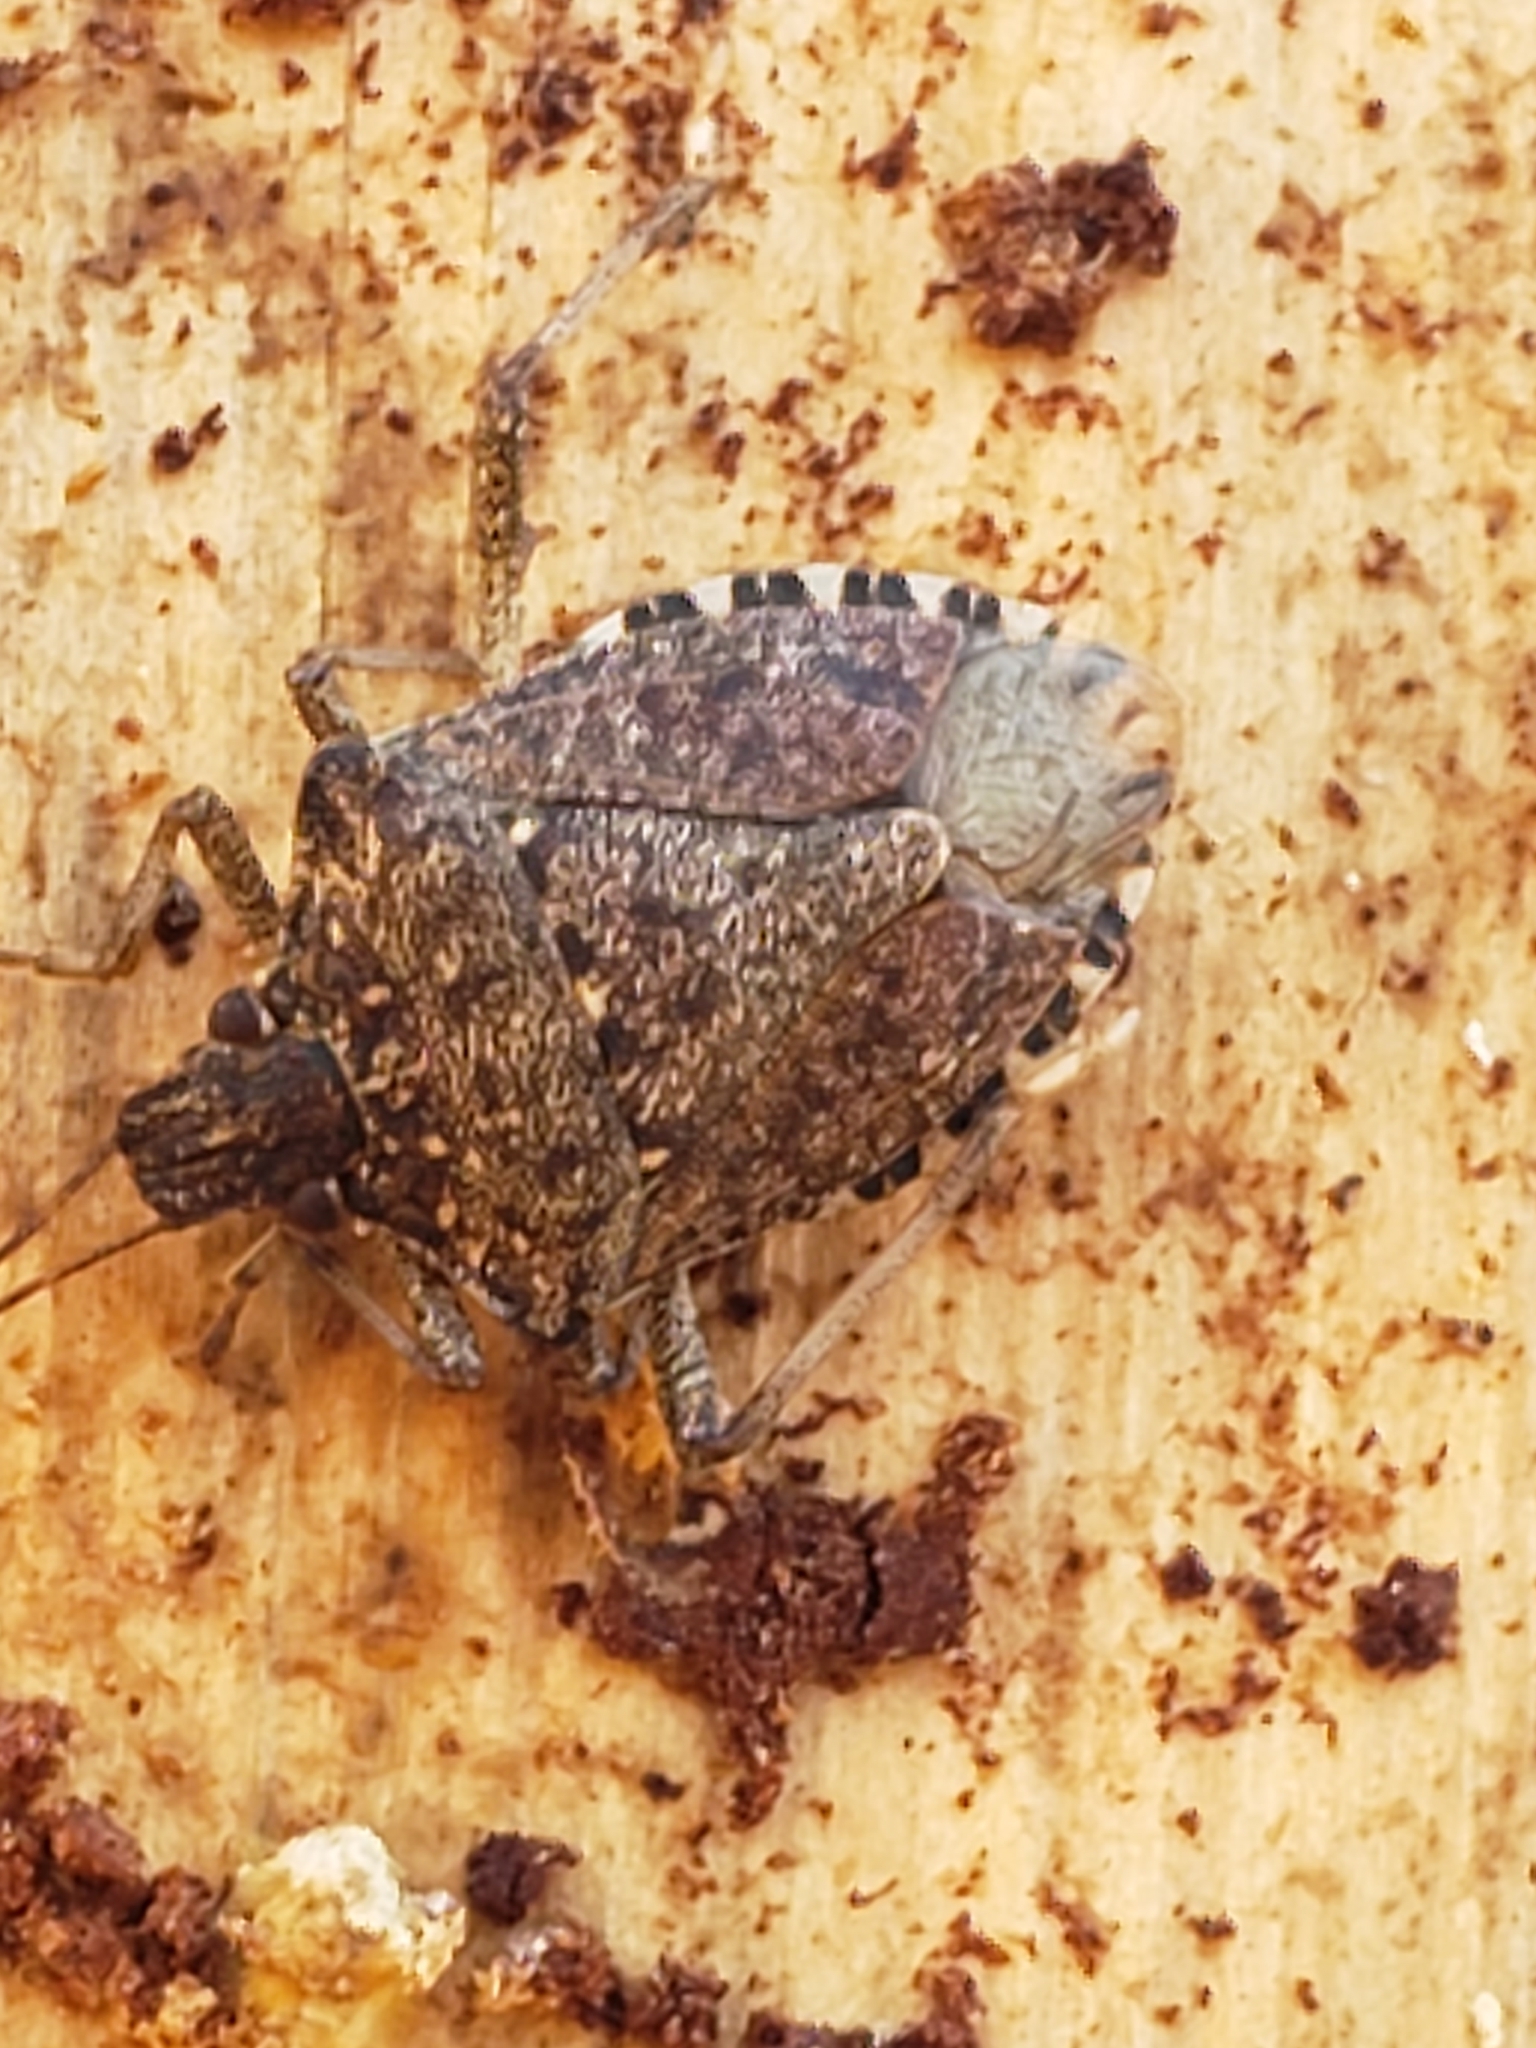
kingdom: Animalia
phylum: Arthropoda
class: Insecta
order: Hemiptera
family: Pentatomidae
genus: Halyomorpha
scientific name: Halyomorpha halys
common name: Brown marmorated stink bug
